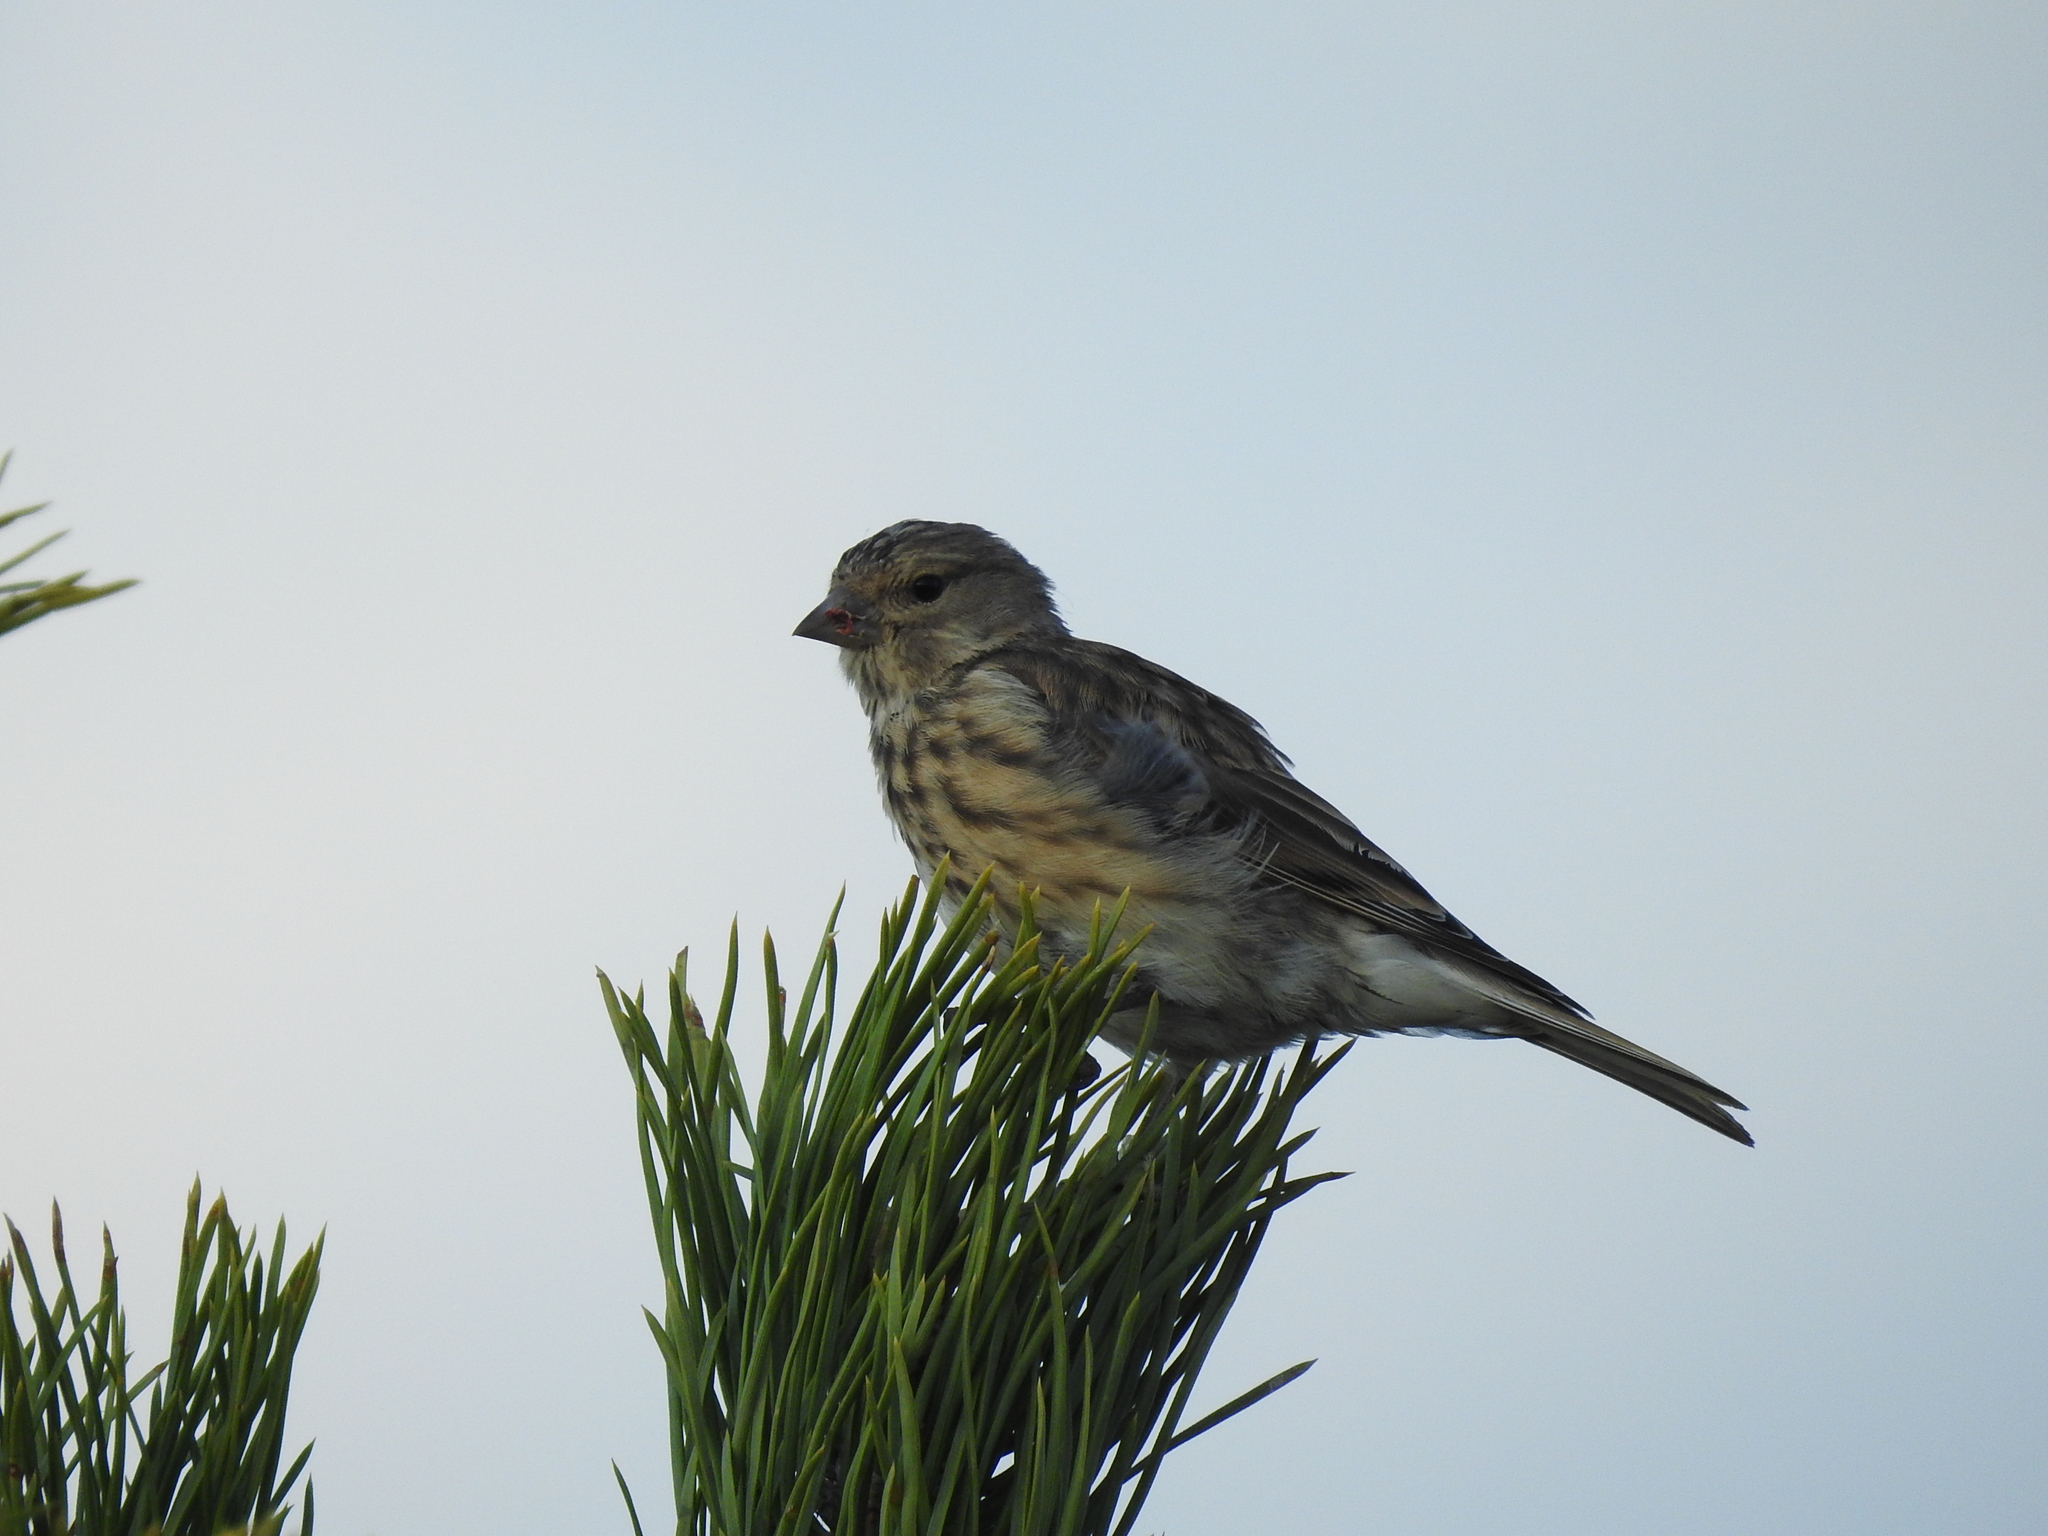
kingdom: Animalia
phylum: Chordata
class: Aves
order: Passeriformes
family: Fringillidae
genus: Linaria
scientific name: Linaria cannabina
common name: Common linnet
